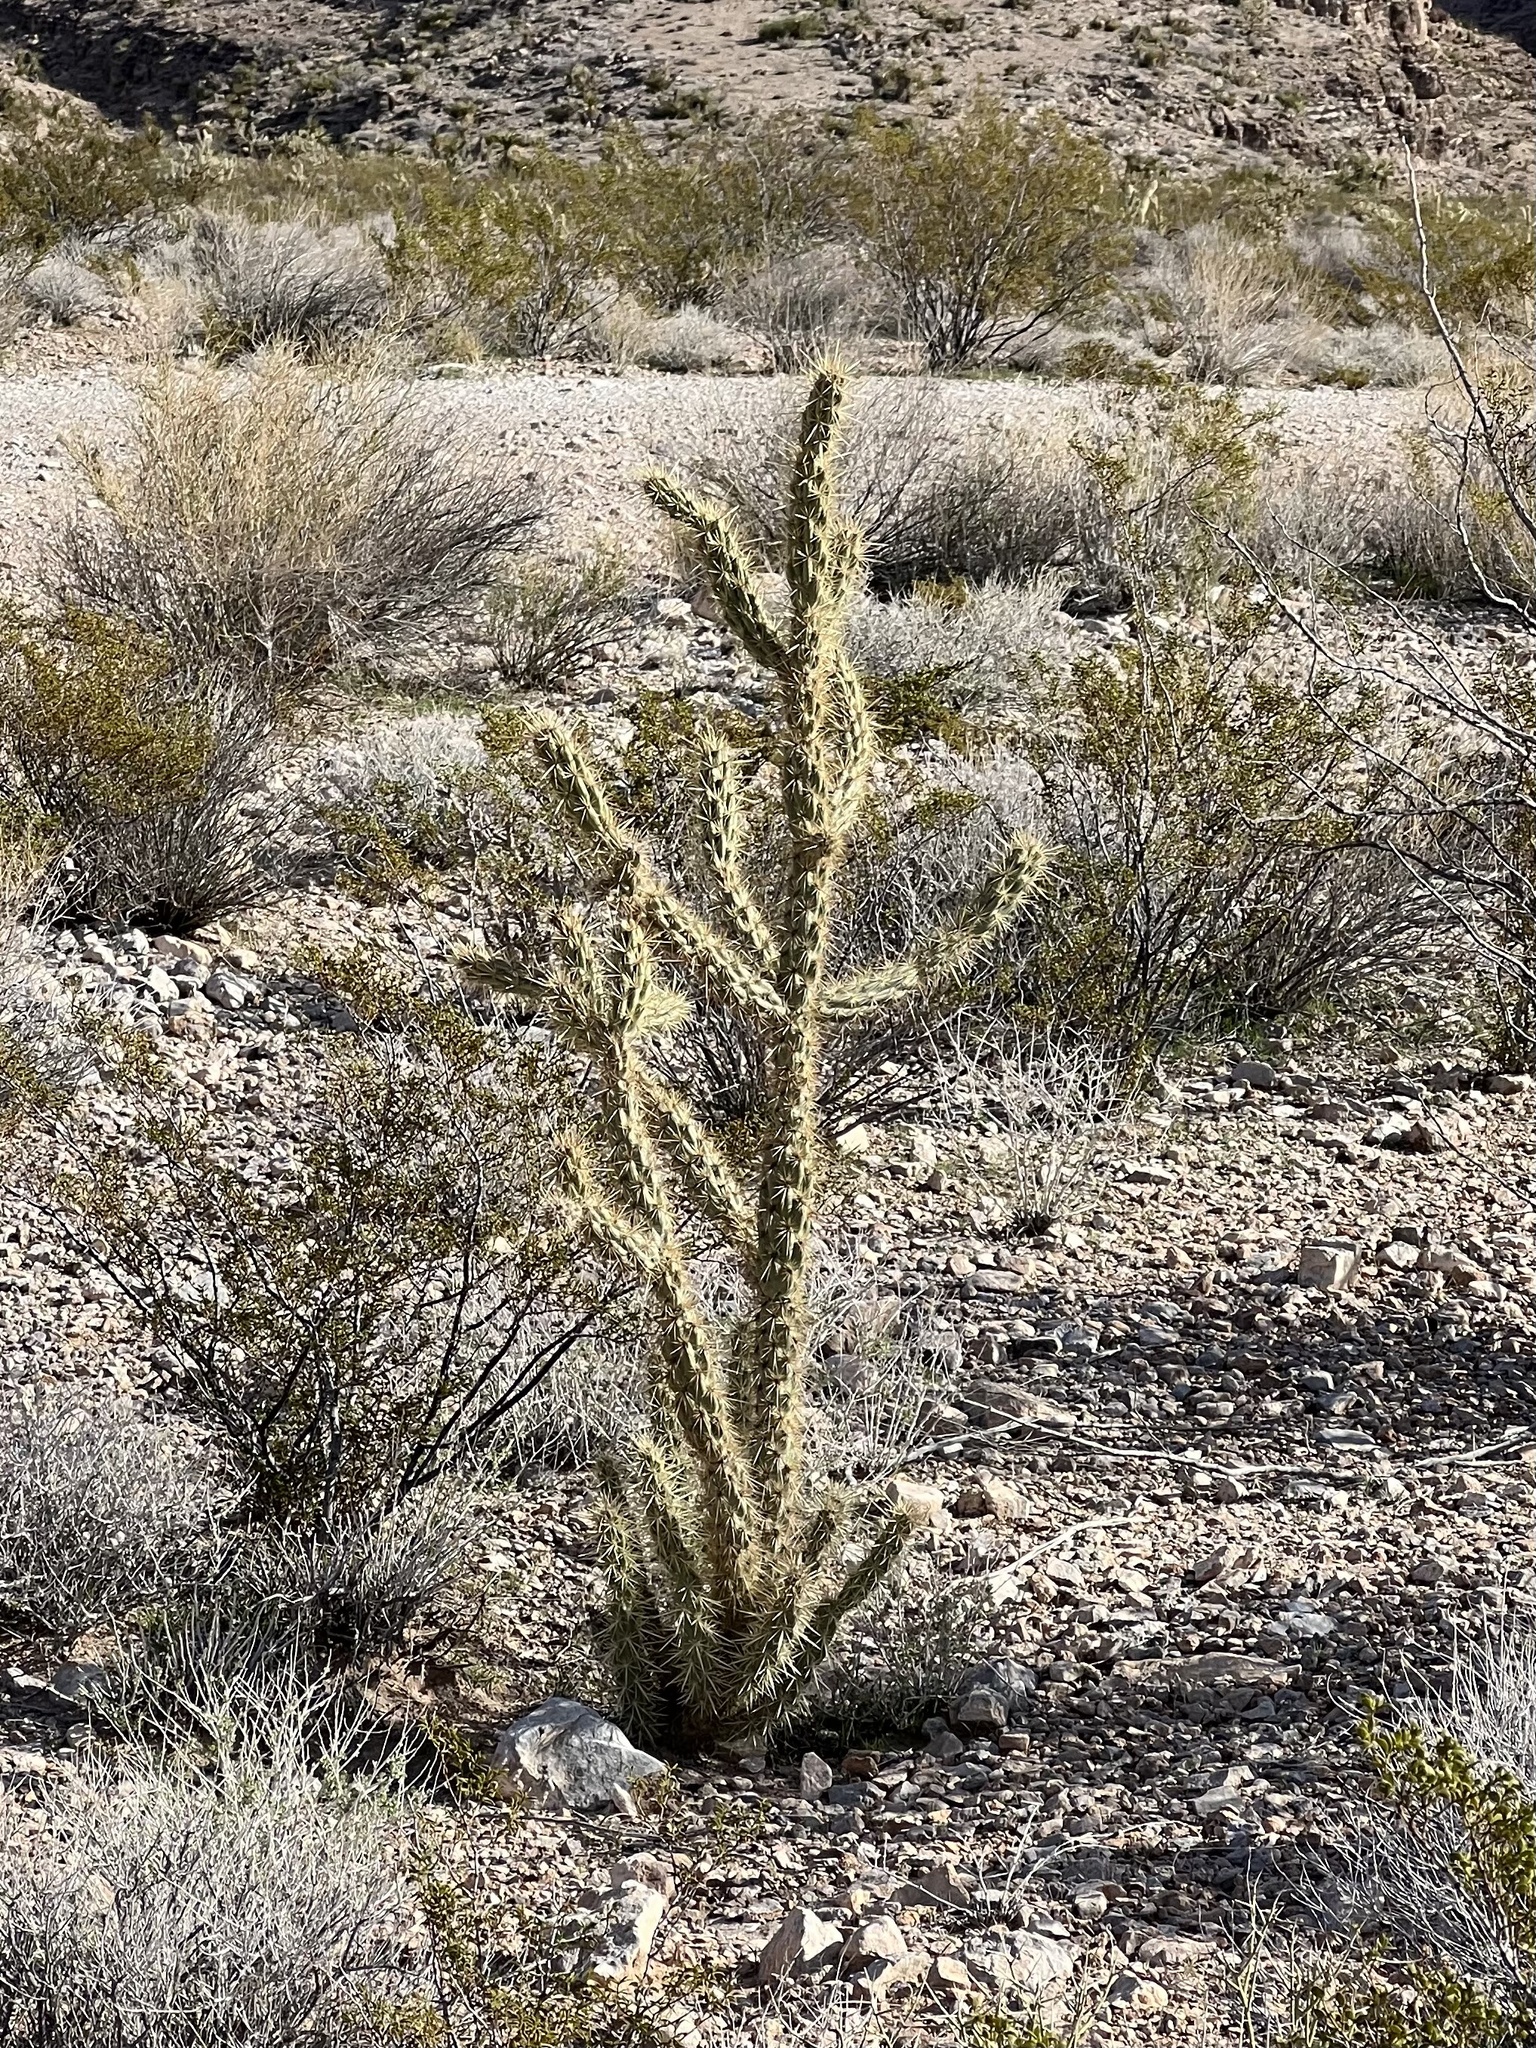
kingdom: Plantae
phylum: Tracheophyta
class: Magnoliopsida
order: Caryophyllales
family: Cactaceae
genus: Cylindropuntia
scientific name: Cylindropuntia acanthocarpa
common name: Buckhorn cholla
